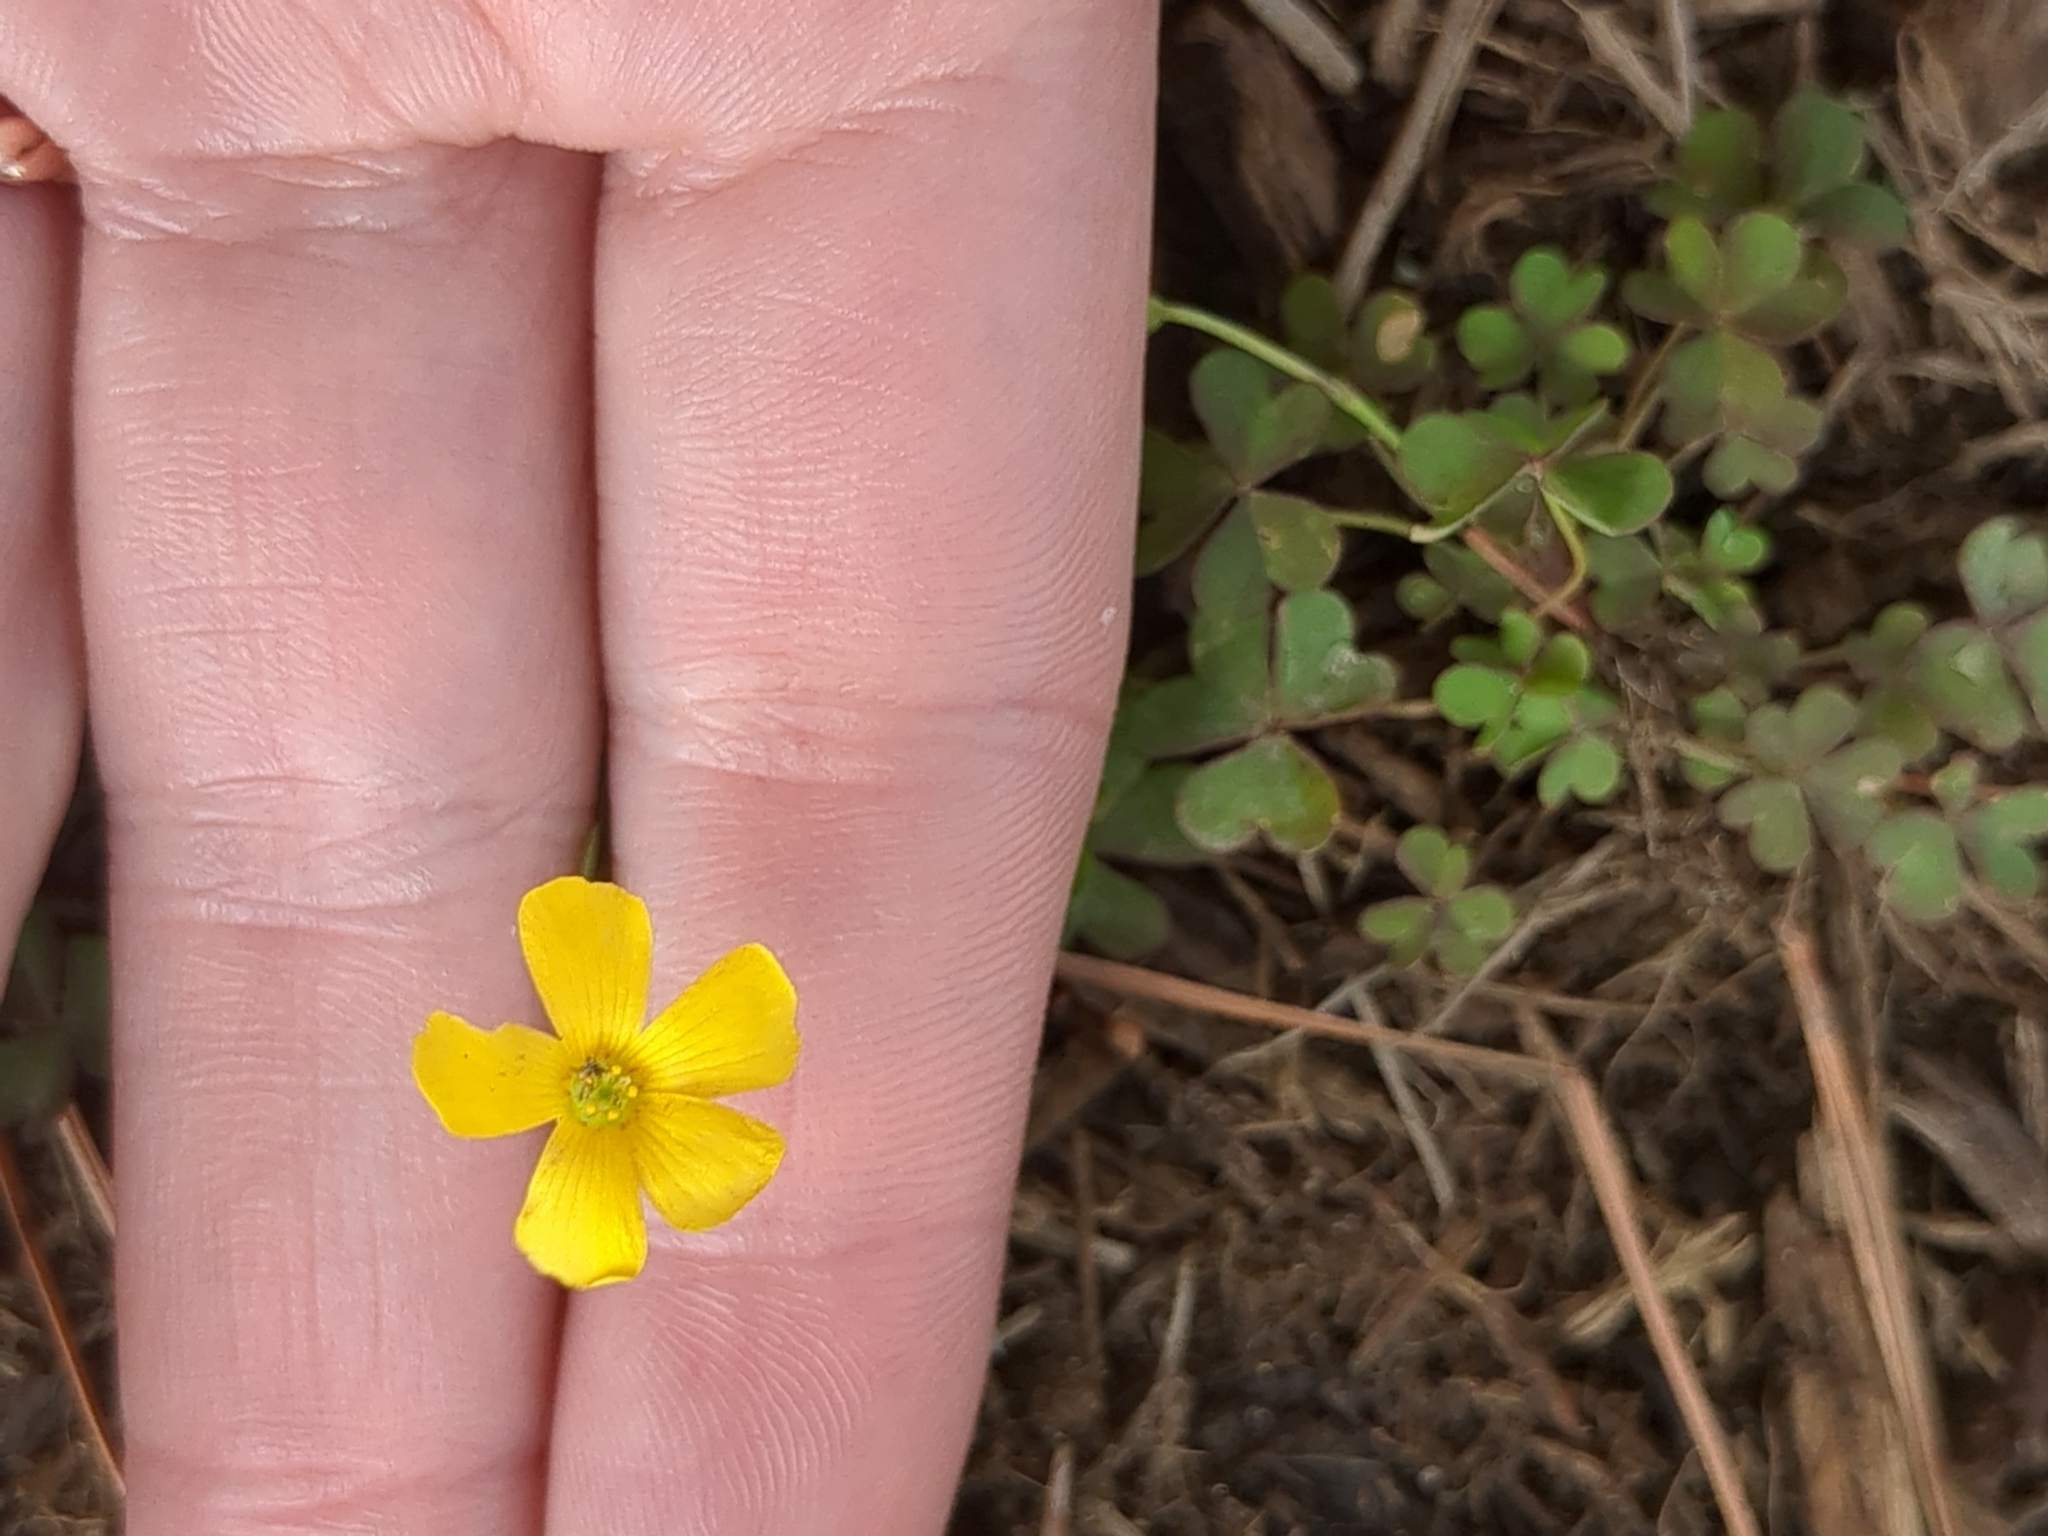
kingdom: Plantae
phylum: Tracheophyta
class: Magnoliopsida
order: Oxalidales
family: Oxalidaceae
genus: Oxalis
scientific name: Oxalis corniculata
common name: Procumbent yellow-sorrel
